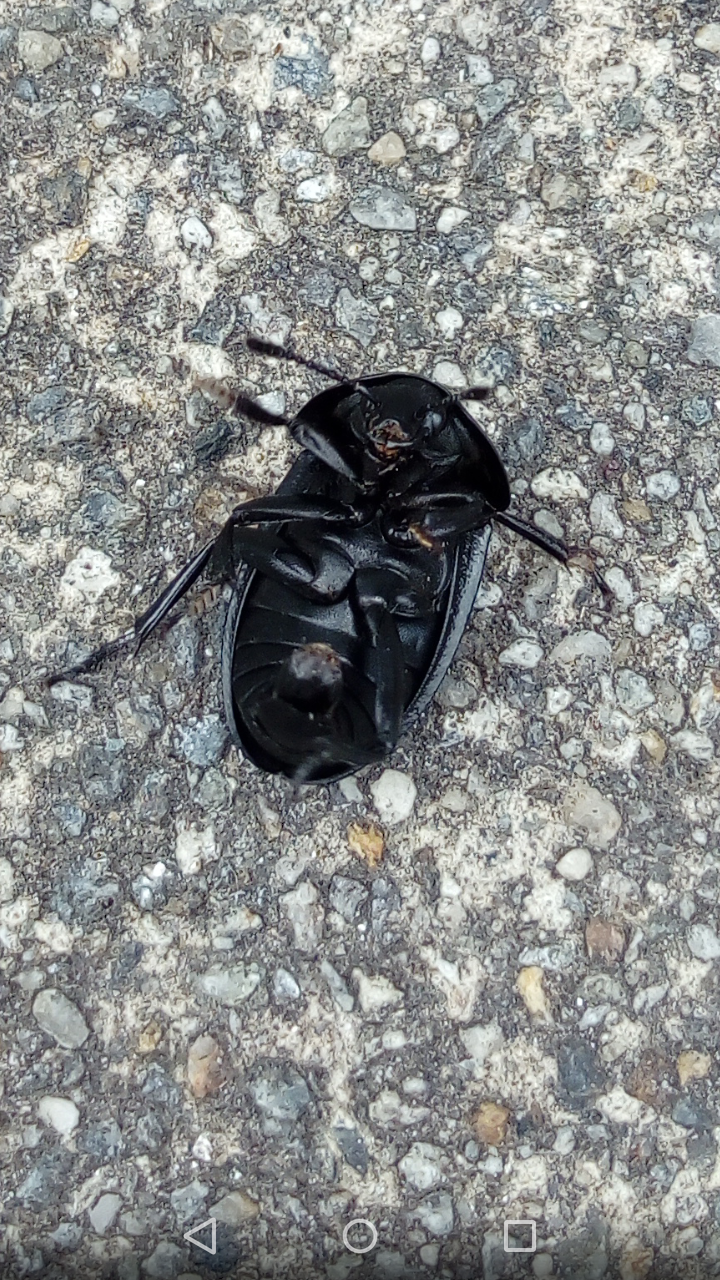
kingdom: Animalia
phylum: Arthropoda
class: Insecta
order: Coleoptera
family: Staphylinidae
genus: Silpha
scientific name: Silpha obscura
